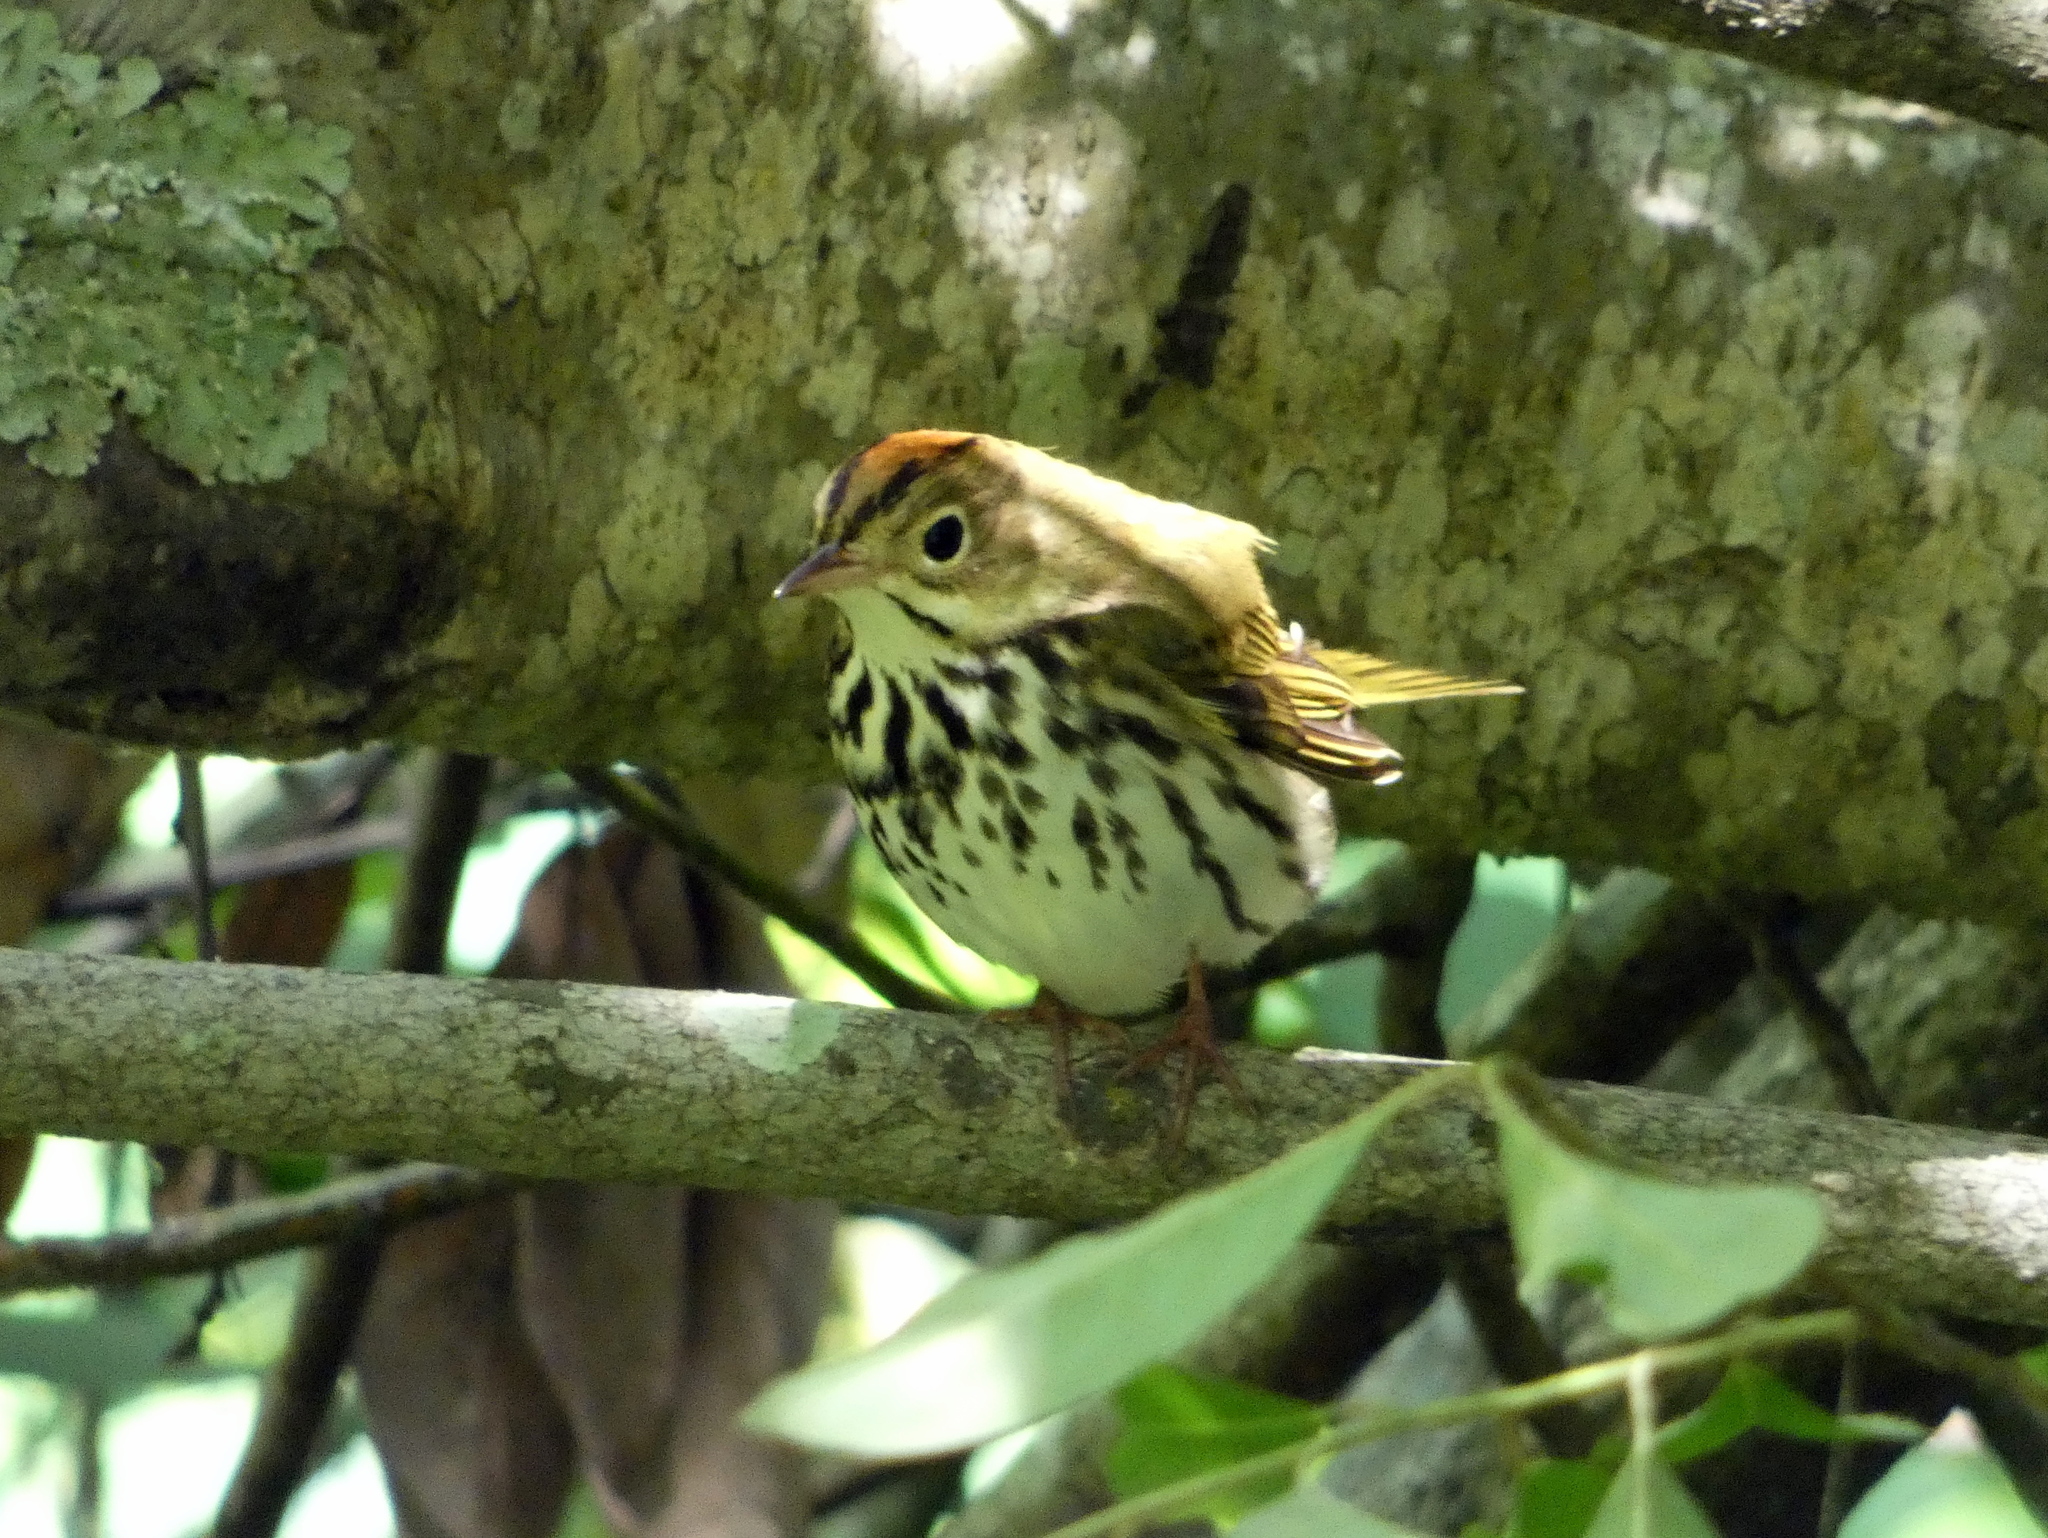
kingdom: Animalia
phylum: Chordata
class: Aves
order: Passeriformes
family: Parulidae
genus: Seiurus
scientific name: Seiurus aurocapilla
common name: Ovenbird
